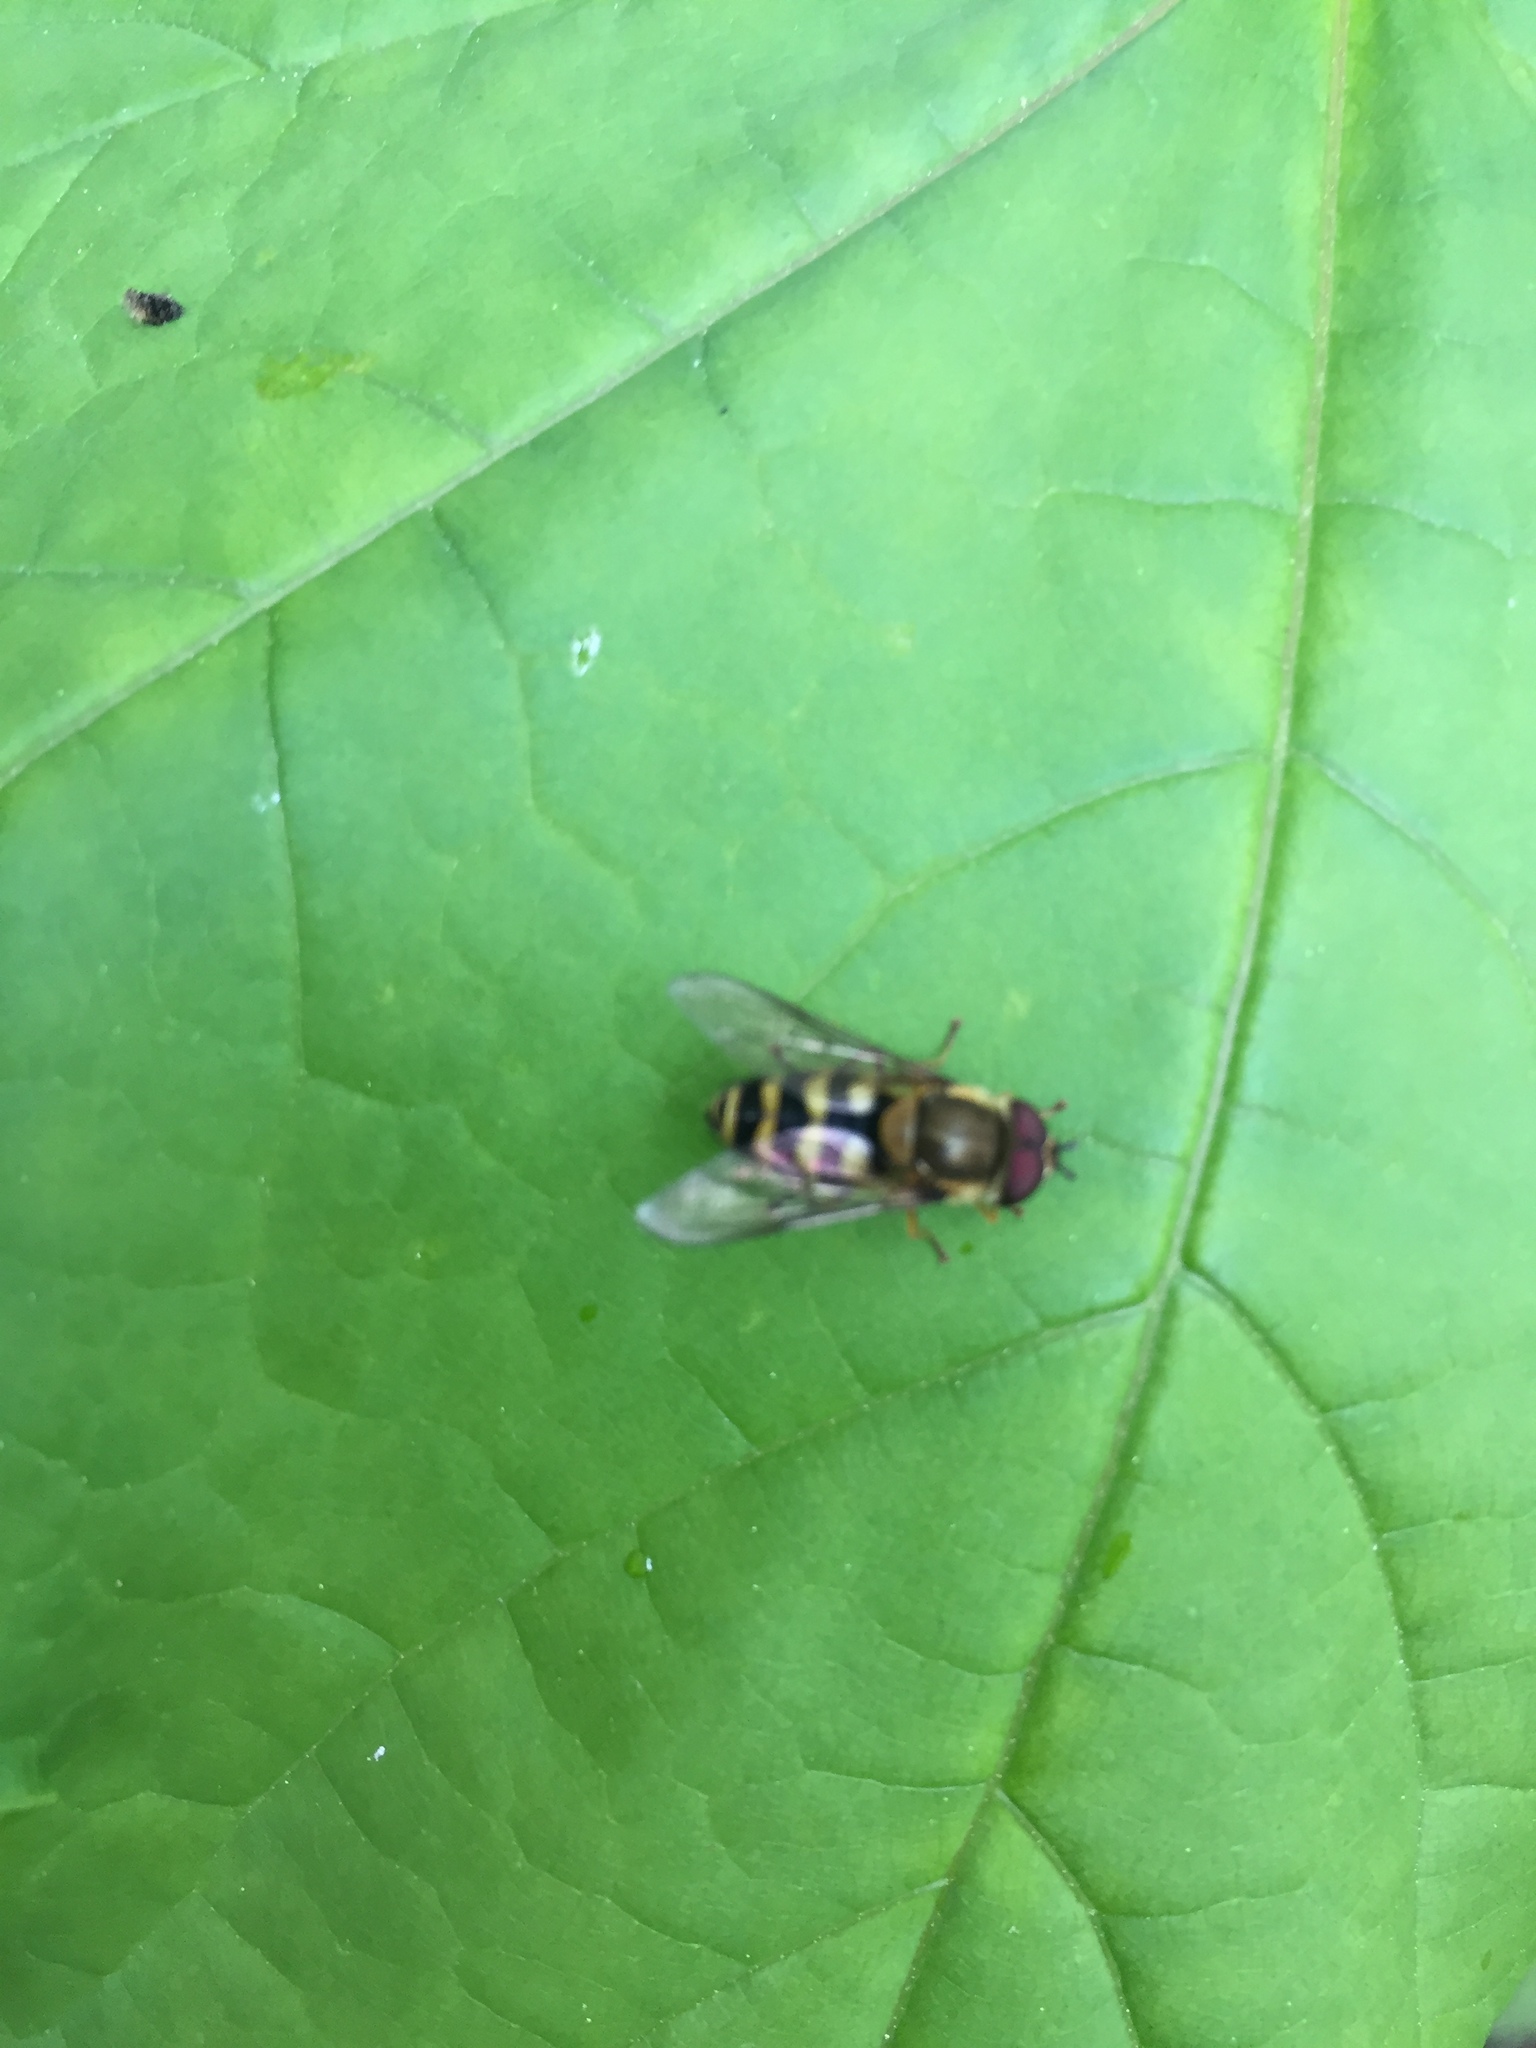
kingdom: Animalia
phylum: Arthropoda
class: Insecta
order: Diptera
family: Syrphidae
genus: Syrphus
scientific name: Syrphus
